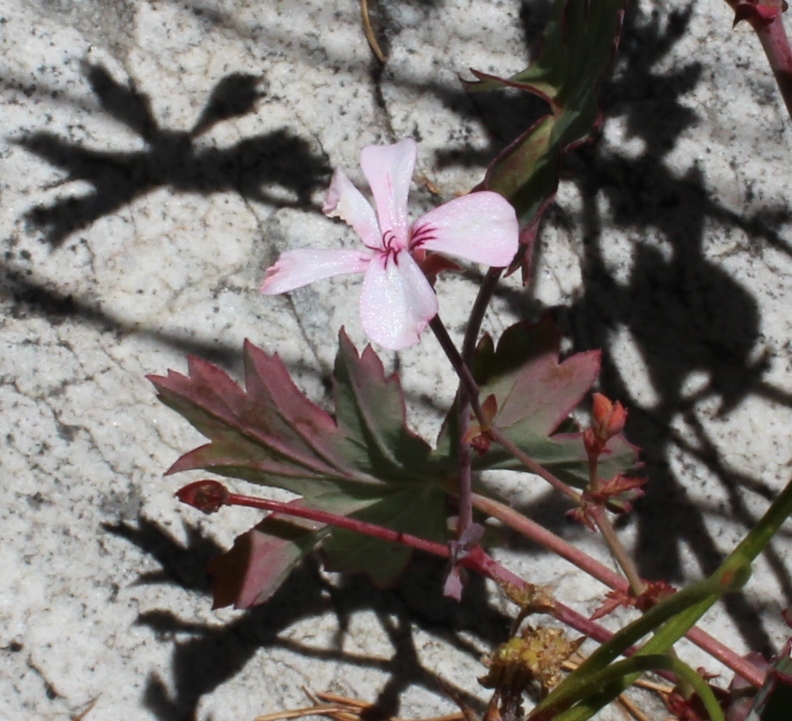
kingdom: Plantae
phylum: Tracheophyta
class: Magnoliopsida
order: Geraniales
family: Geraniaceae
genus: Pelargonium
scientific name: Pelargonium patulum
